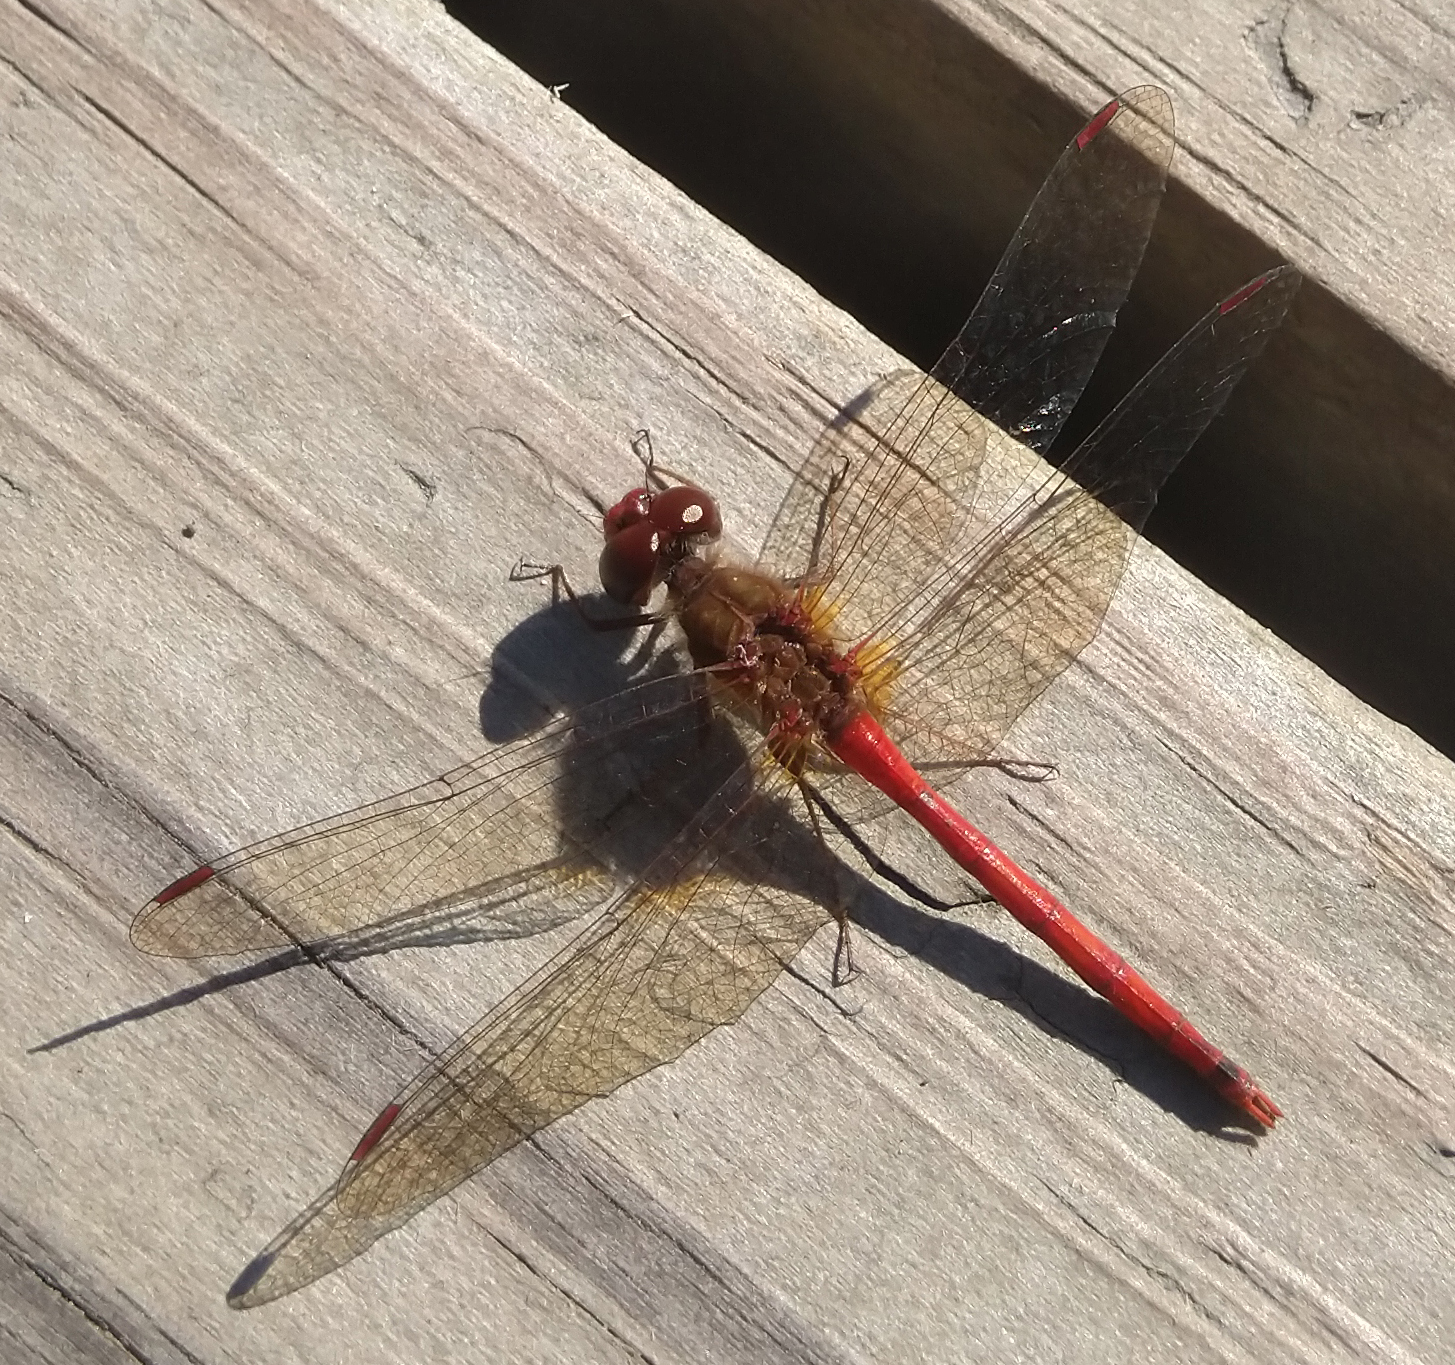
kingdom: Animalia
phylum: Arthropoda
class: Insecta
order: Odonata
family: Libellulidae
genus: Sympetrum
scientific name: Sympetrum vicinum
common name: Autumn meadowhawk
